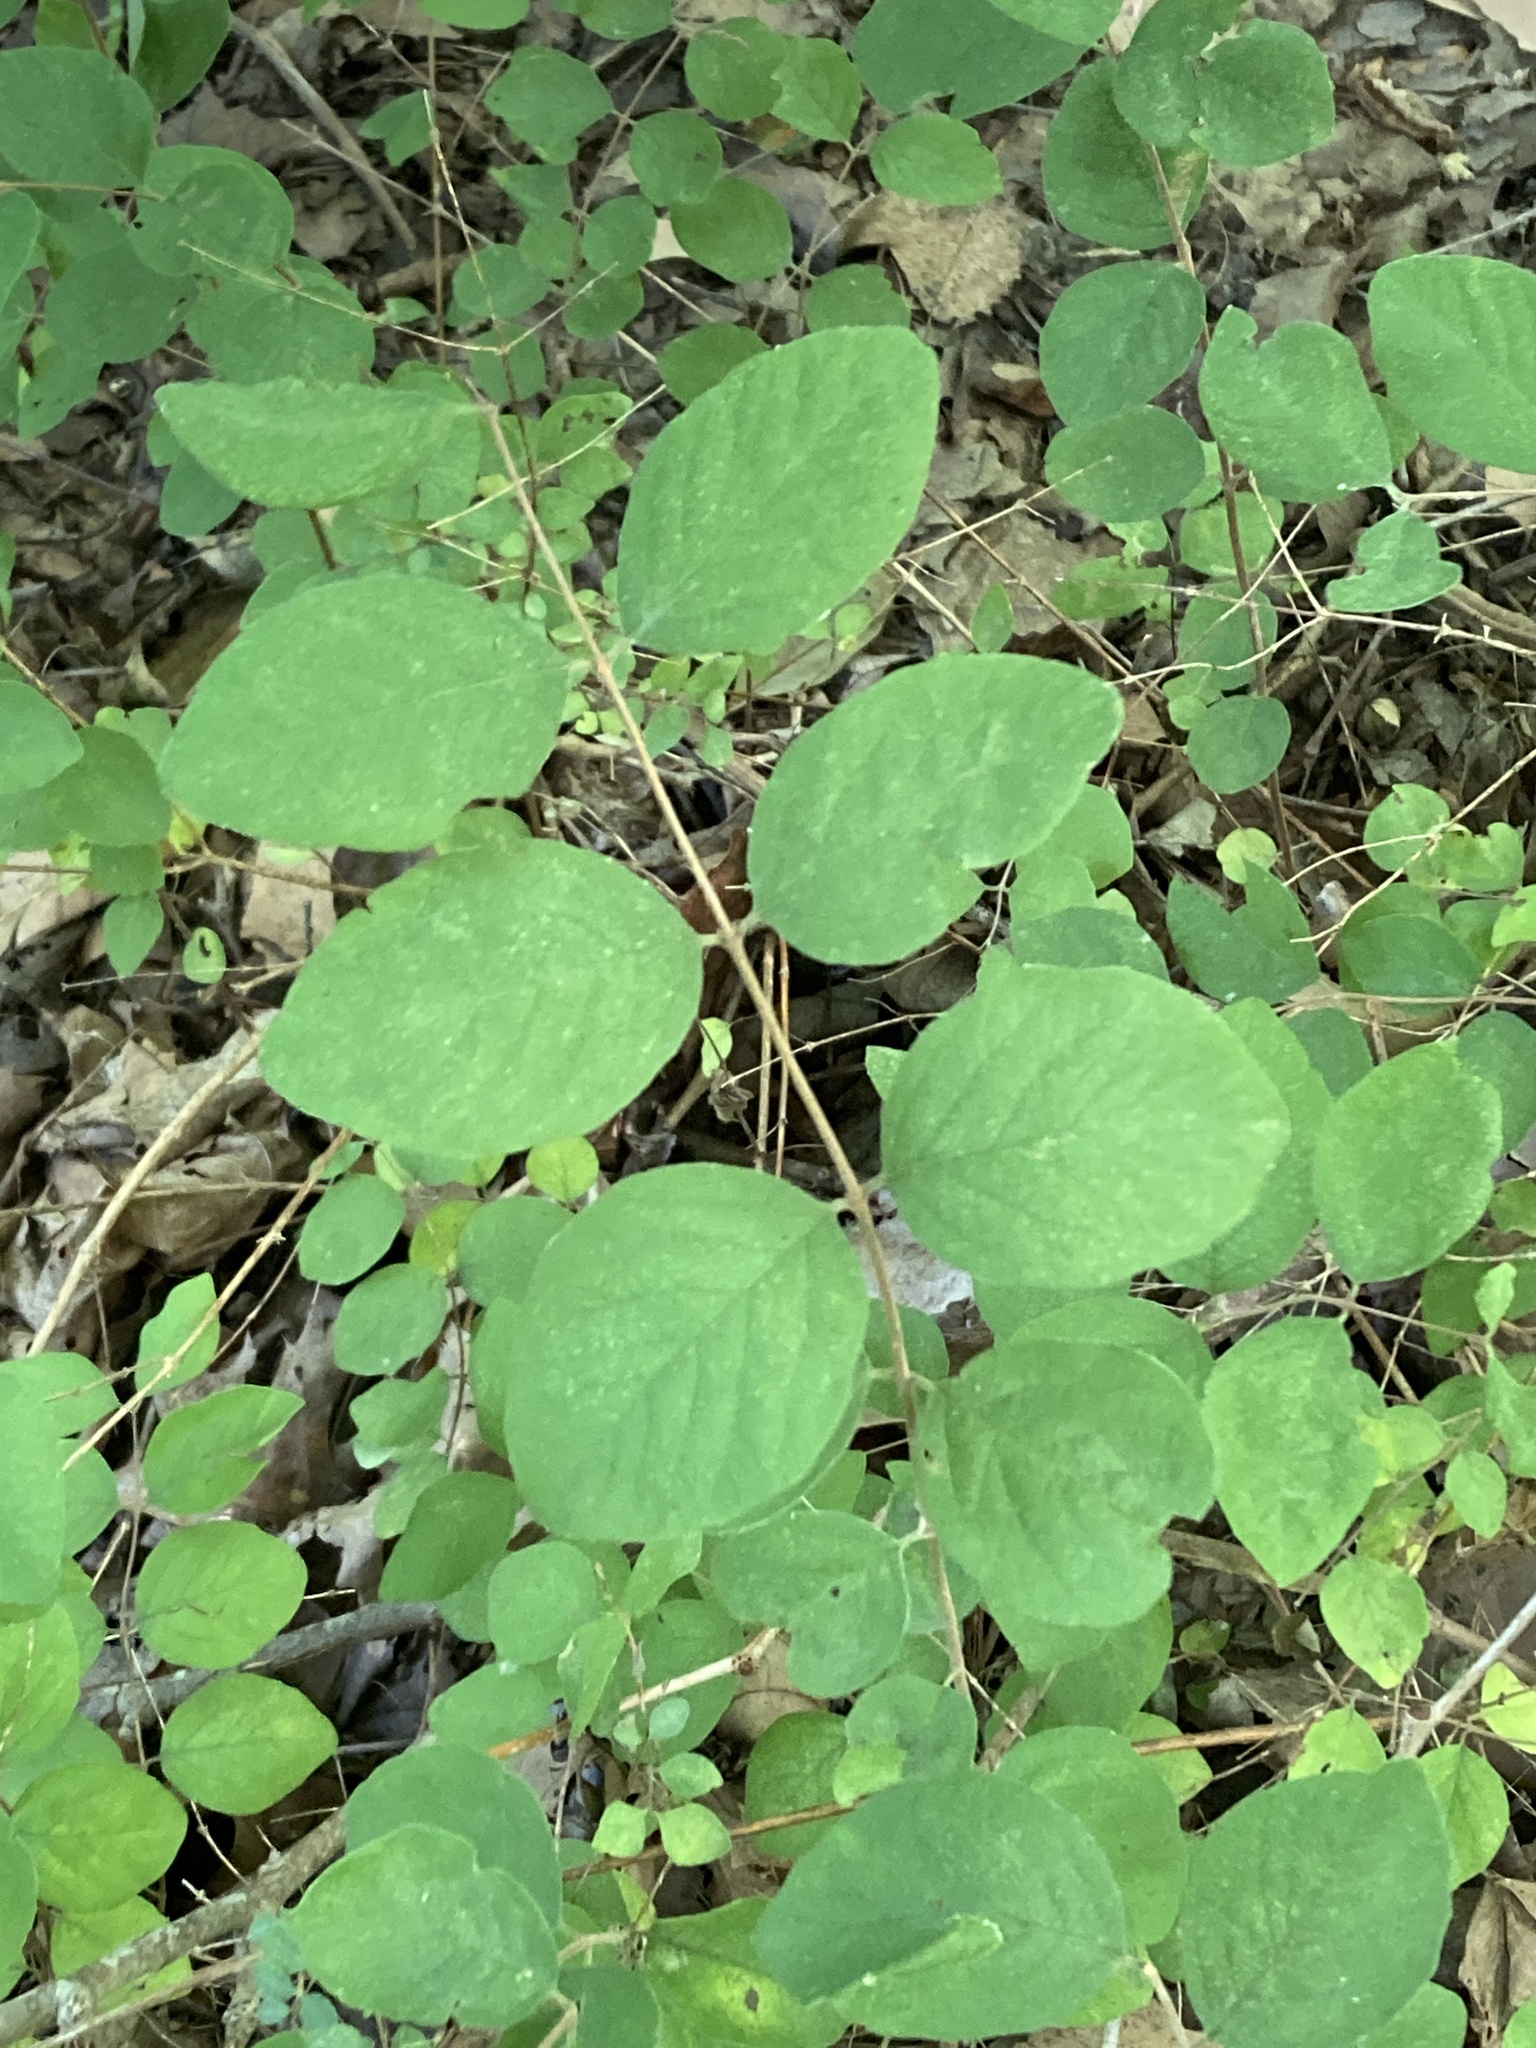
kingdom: Plantae
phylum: Tracheophyta
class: Magnoliopsida
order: Dipsacales
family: Caprifoliaceae
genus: Symphoricarpos
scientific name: Symphoricarpos orbiculatus
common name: Coralberry
